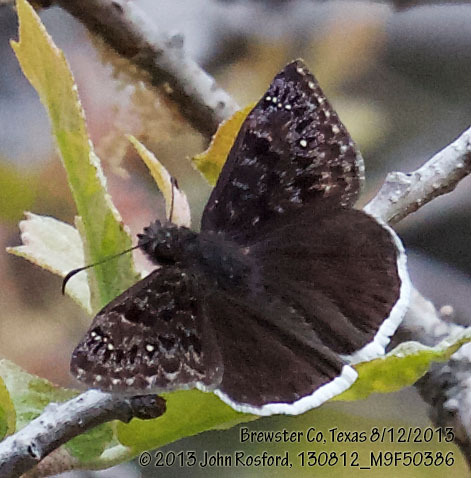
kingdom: Animalia
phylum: Arthropoda
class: Insecta
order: Lepidoptera
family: Hesperiidae
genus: Erynnis
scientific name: Erynnis tristis
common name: Mournful duskywing
